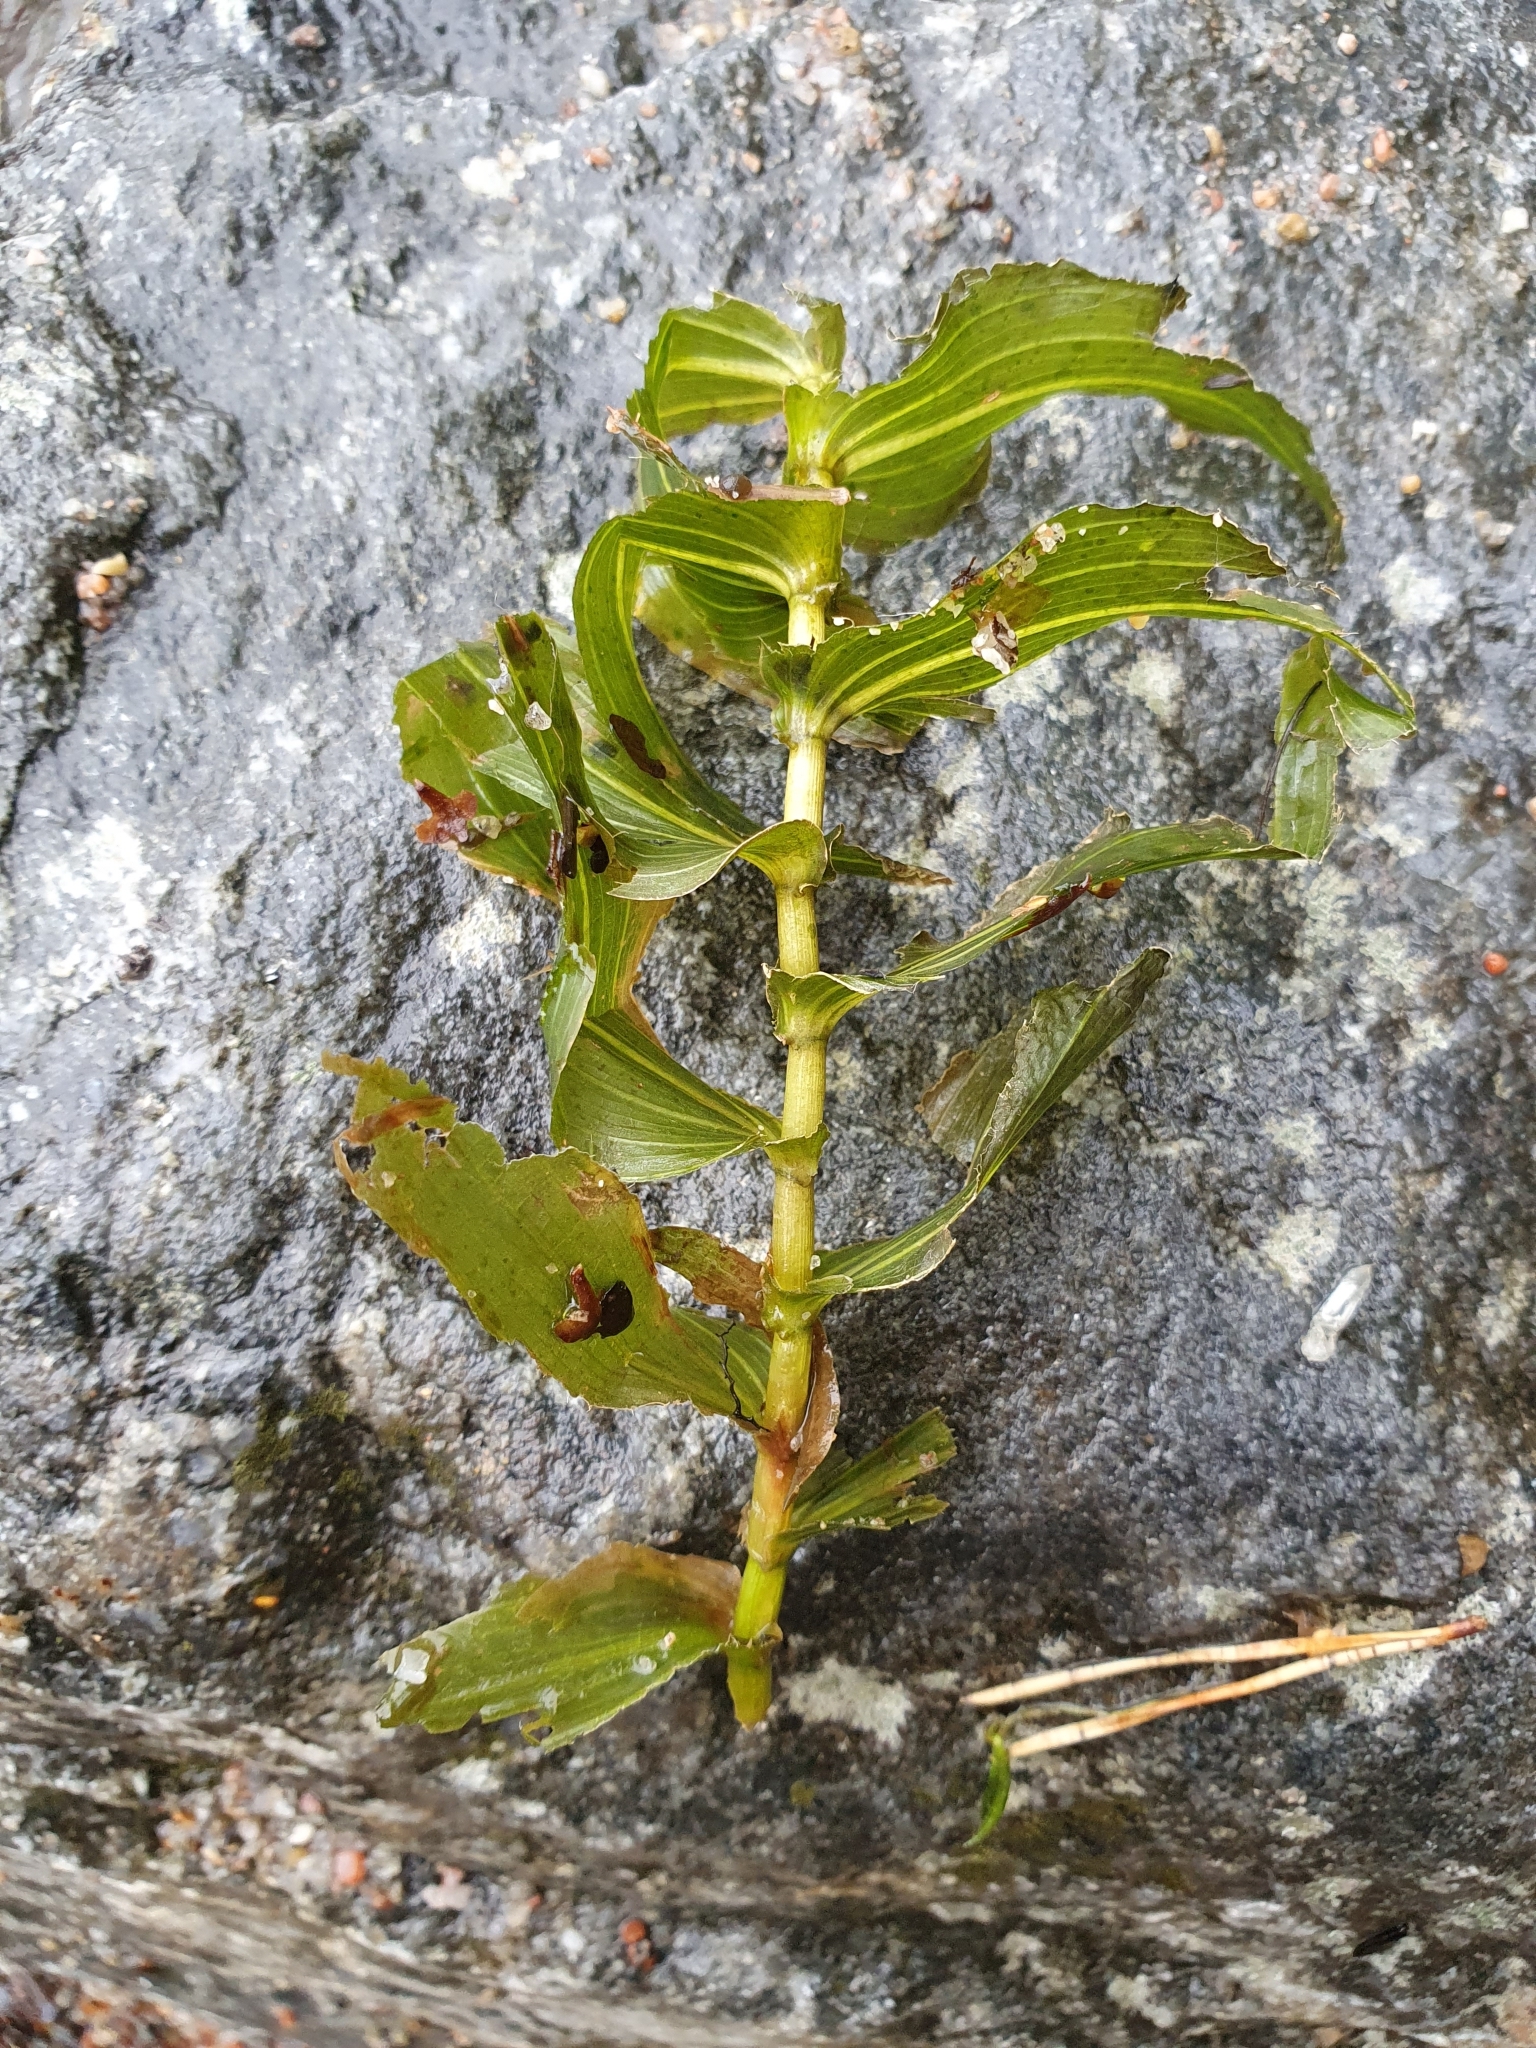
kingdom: Plantae
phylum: Tracheophyta
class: Liliopsida
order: Alismatales
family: Potamogetonaceae
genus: Potamogeton
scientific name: Potamogeton perfoliatus
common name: Perfoliate pondweed
